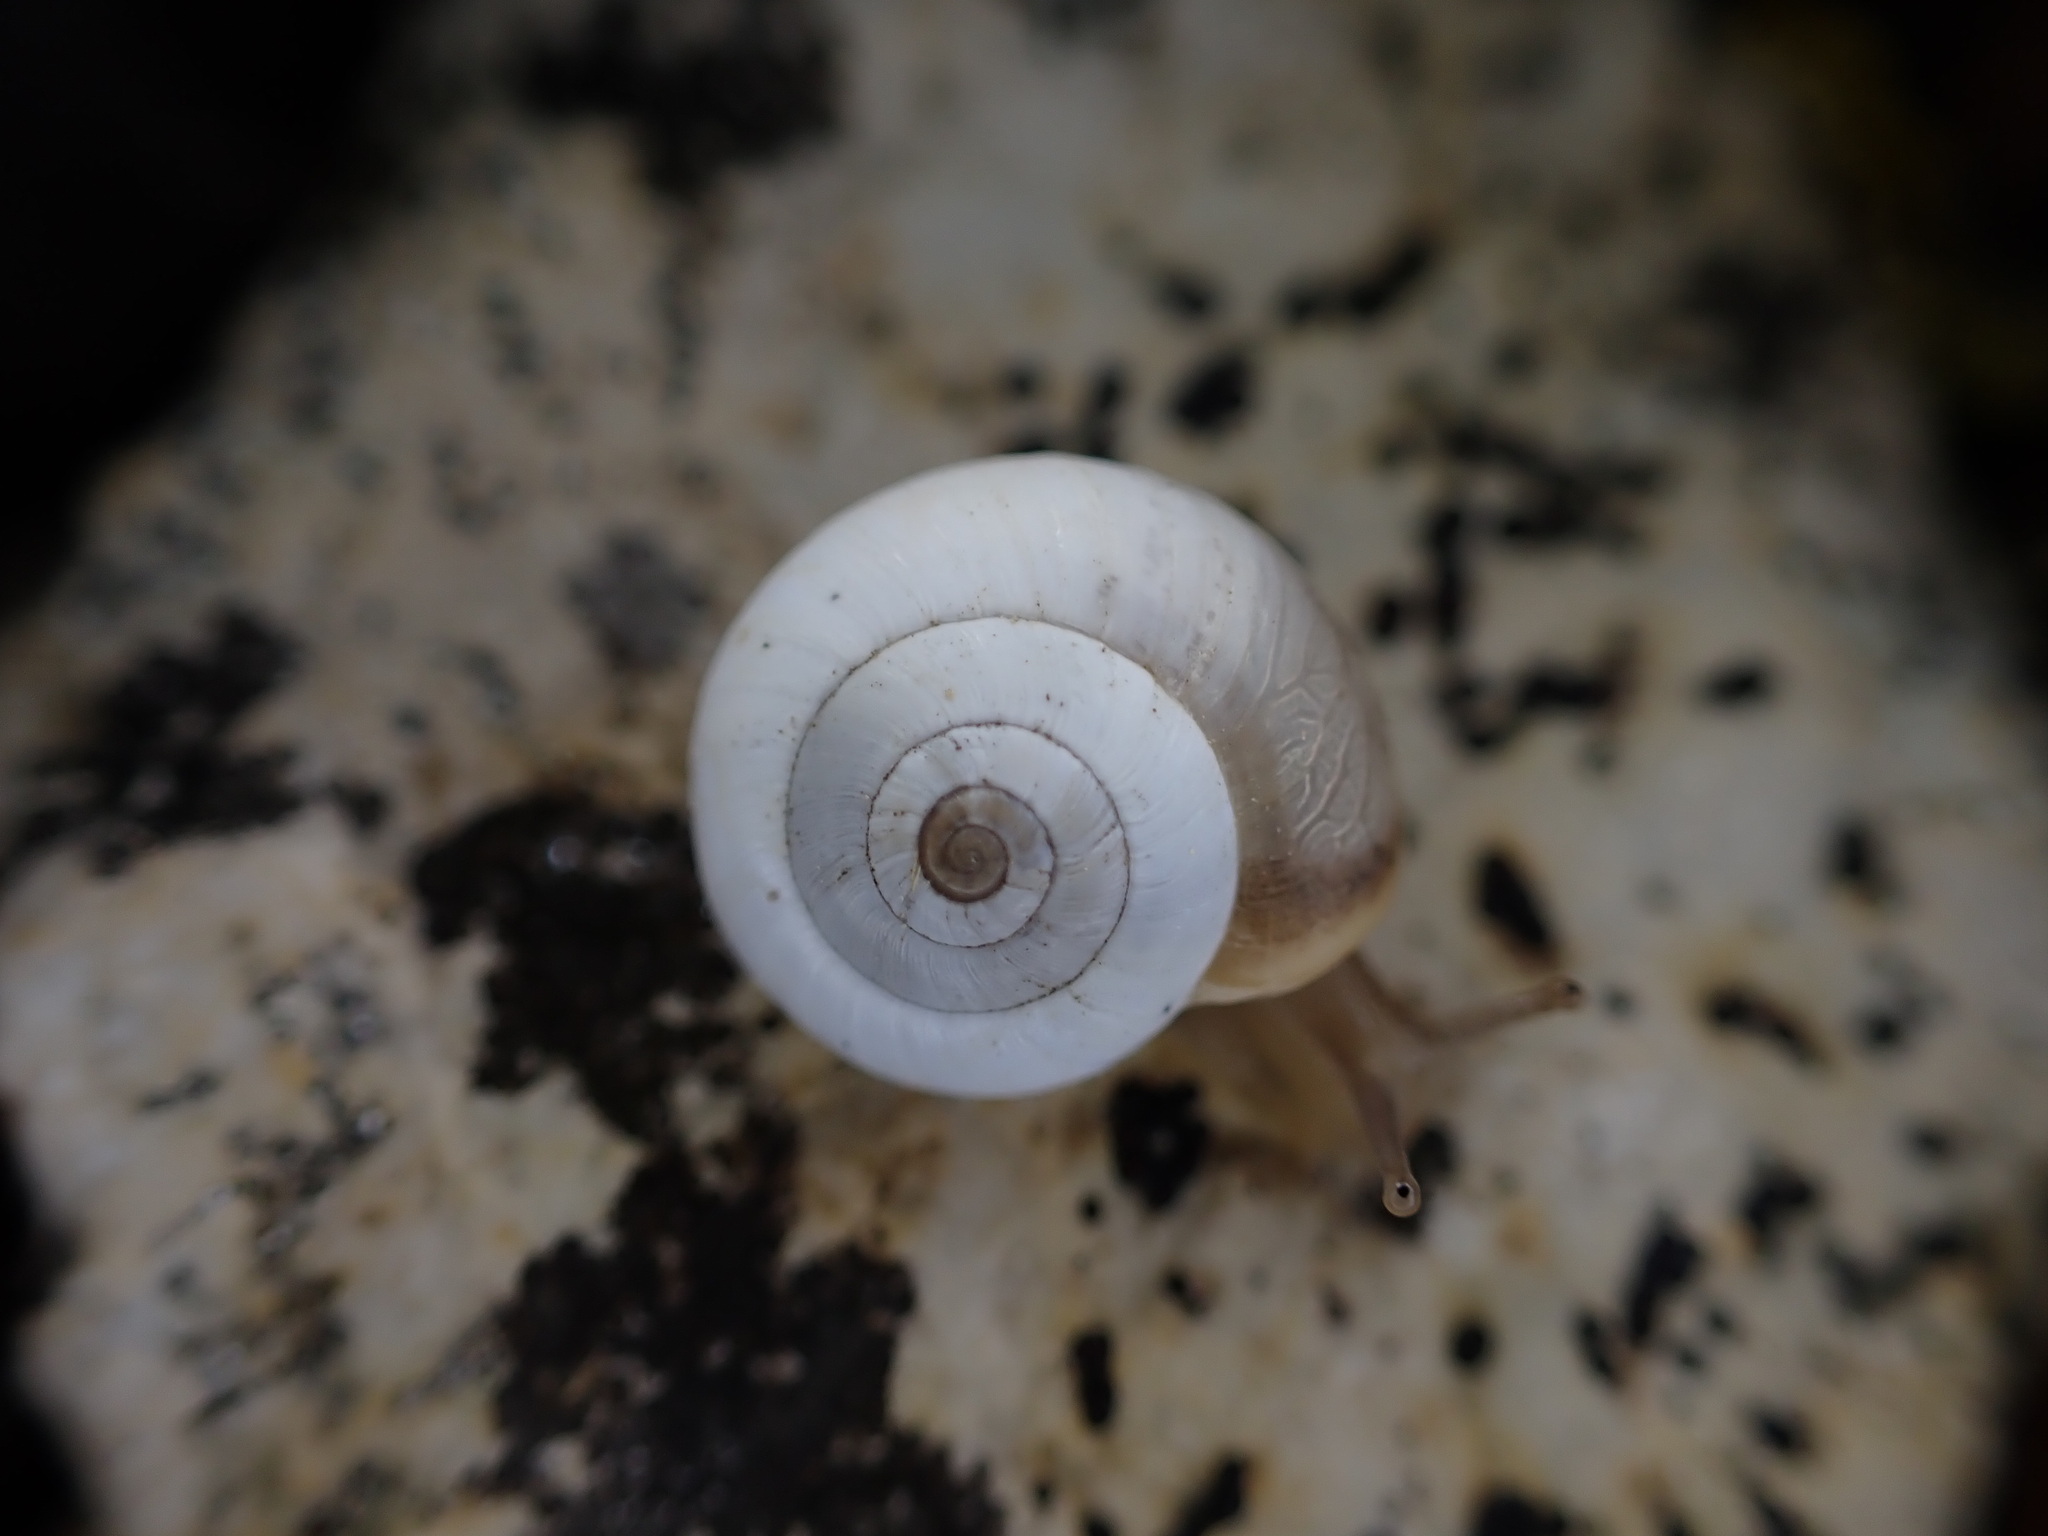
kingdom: Animalia
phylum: Mollusca
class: Gastropoda
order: Stylommatophora
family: Geomitridae
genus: Xeropicta
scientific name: Xeropicta derbentina
